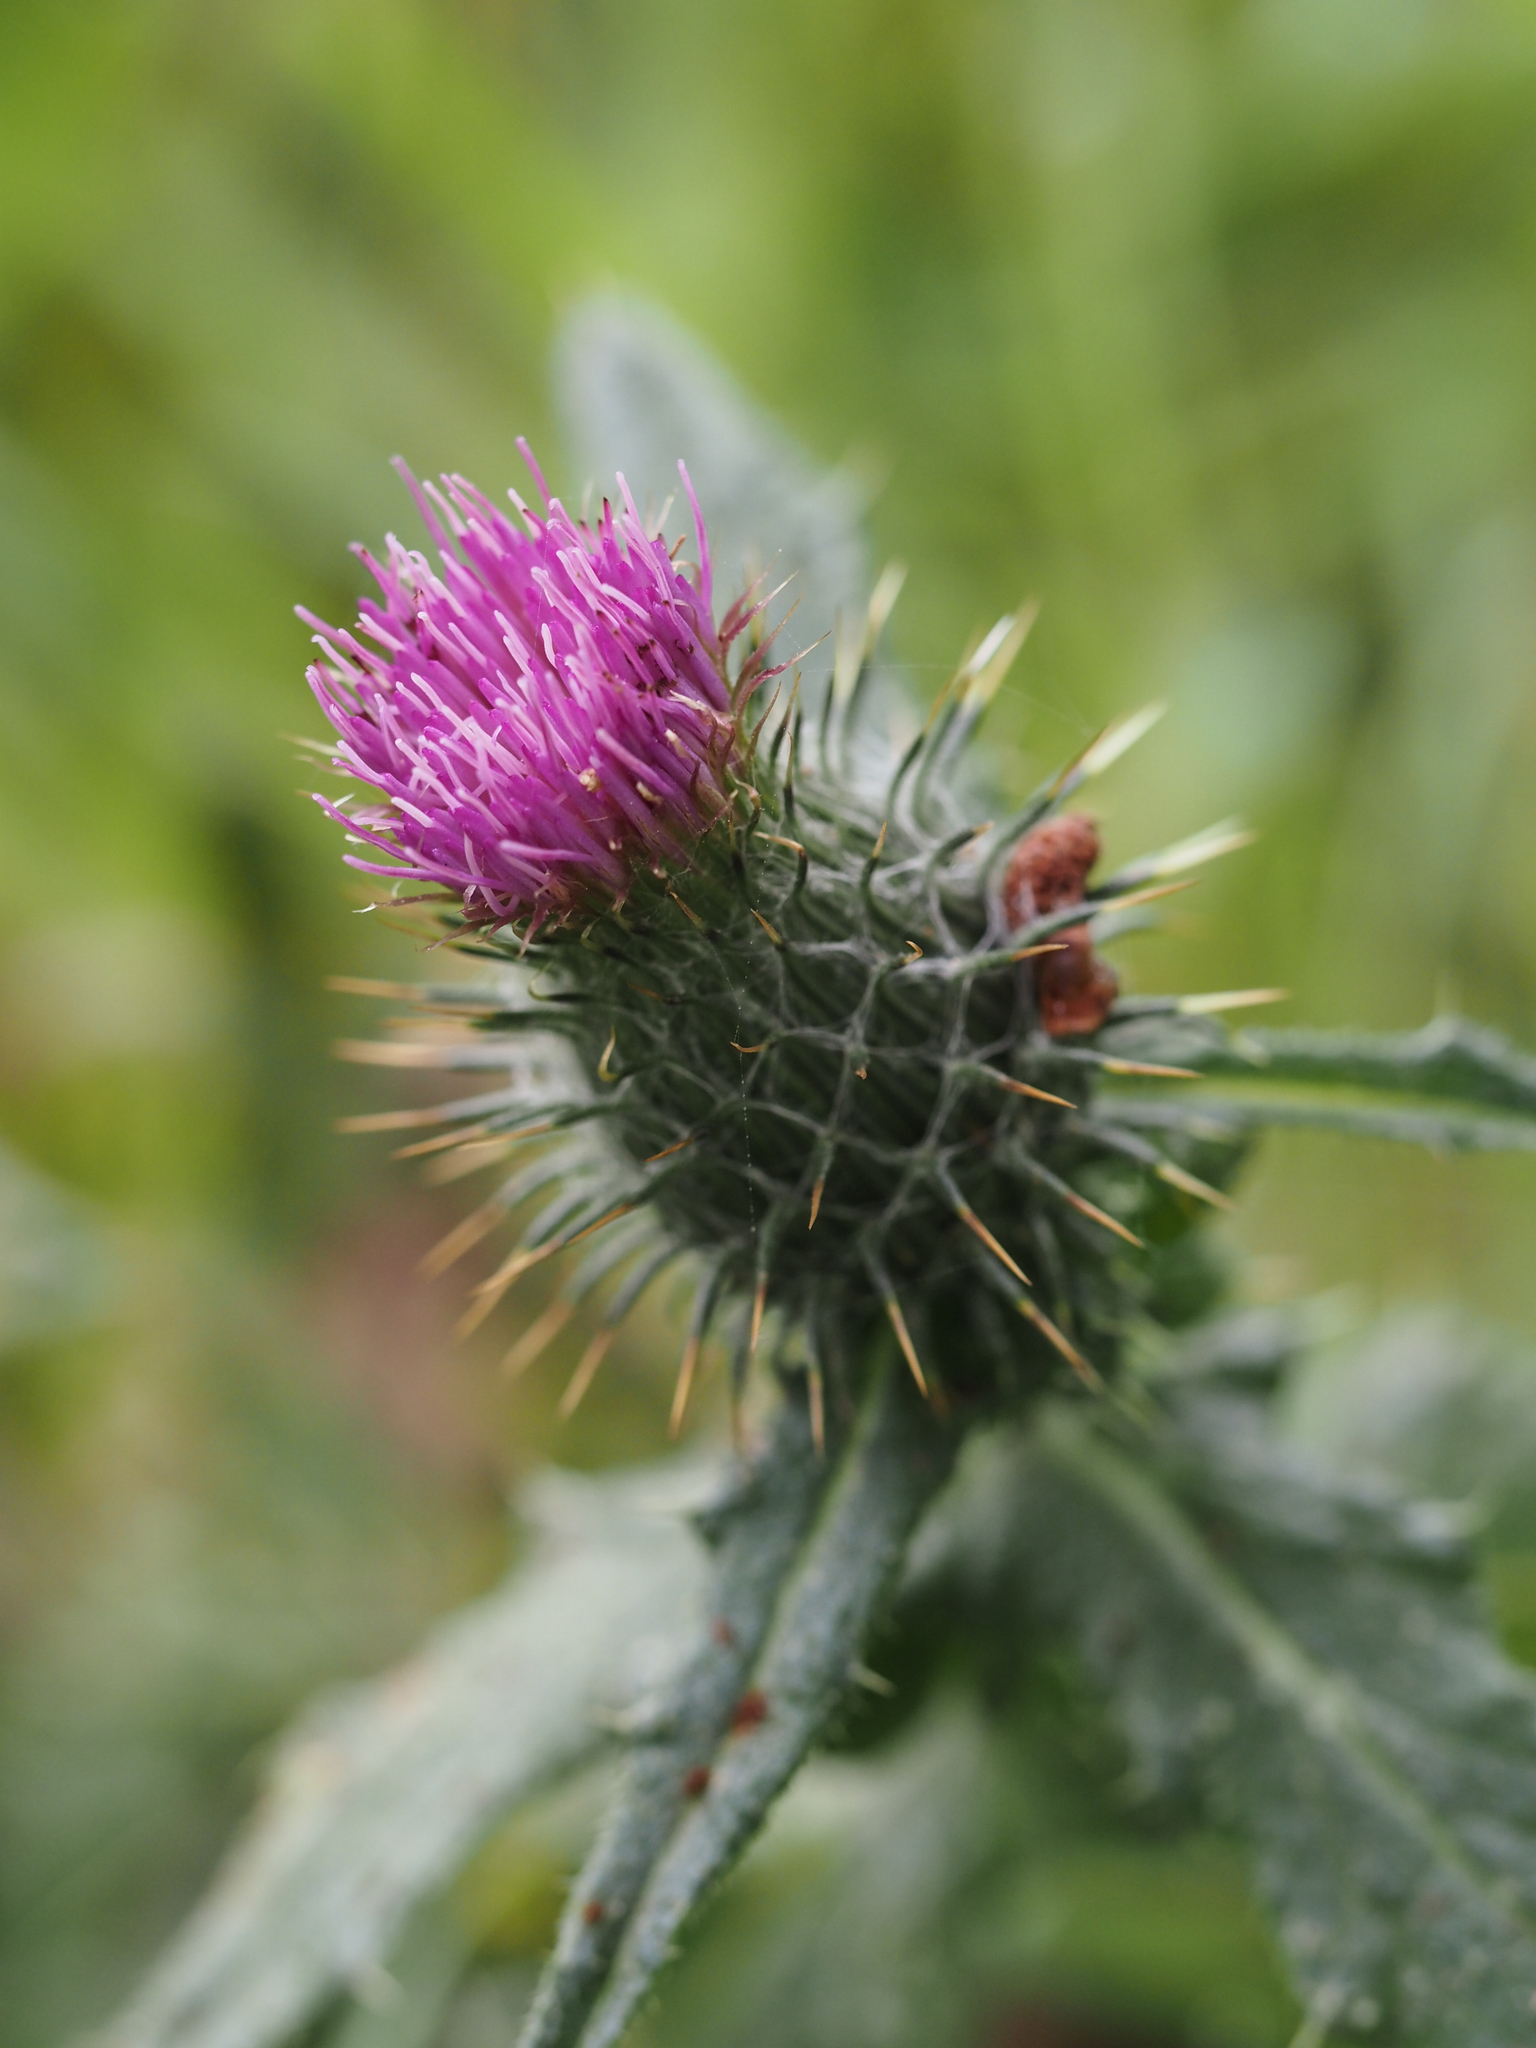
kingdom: Plantae
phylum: Tracheophyta
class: Magnoliopsida
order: Asterales
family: Asteraceae
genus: Cirsium
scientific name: Cirsium vulgare
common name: Bull thistle
